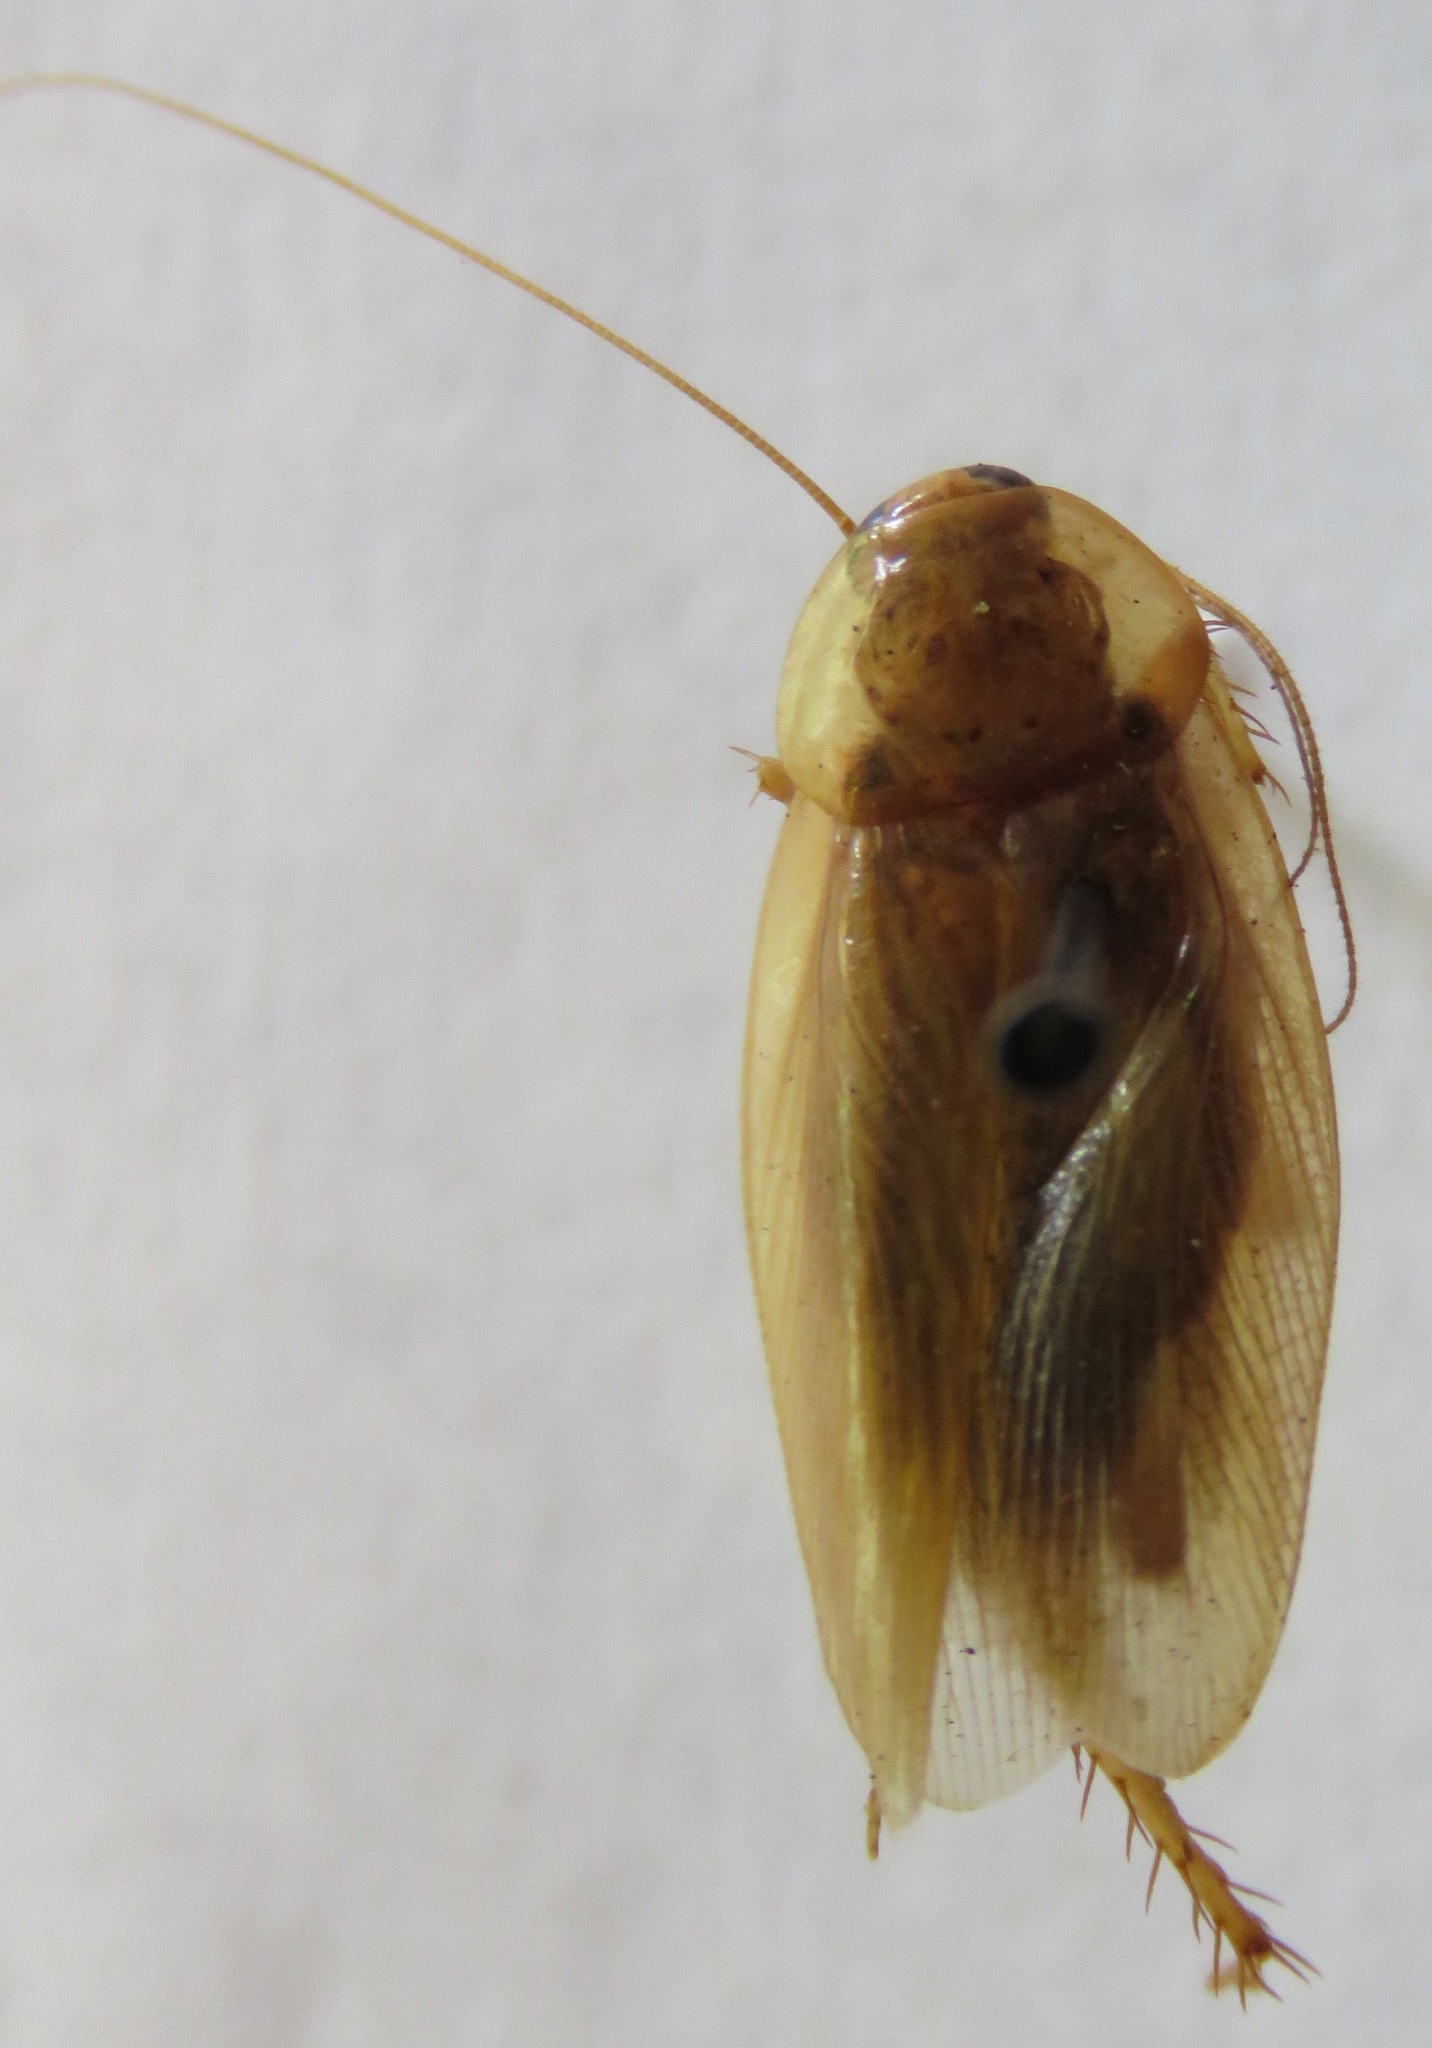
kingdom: Animalia
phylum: Arthropoda
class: Insecta
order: Blattodea
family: Ectobiidae
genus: Nahublattella
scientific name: Nahublattella fraterna
